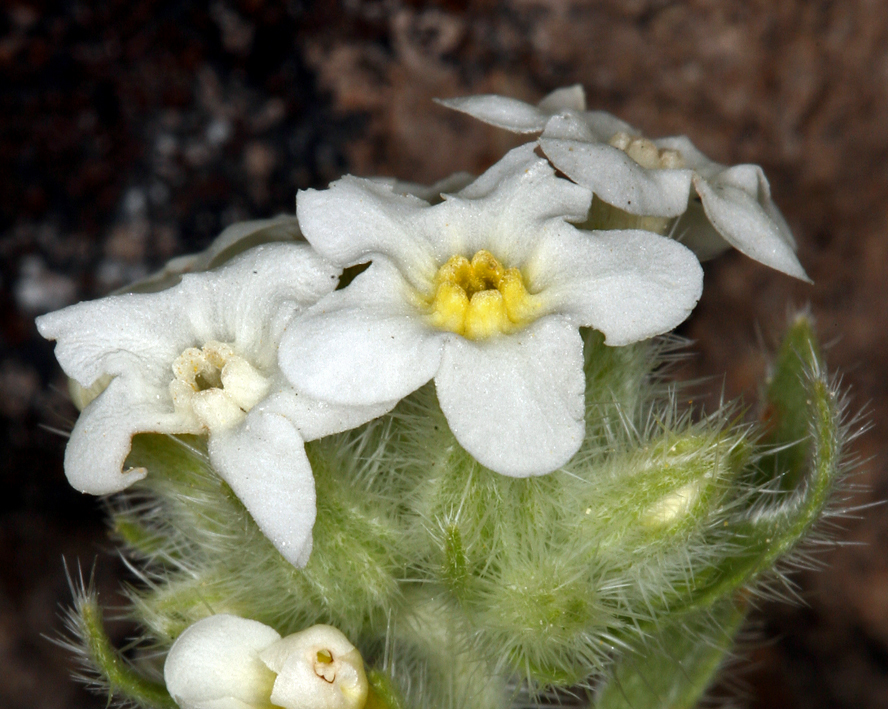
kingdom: Plantae
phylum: Tracheophyta
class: Magnoliopsida
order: Boraginales
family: Boraginaceae
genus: Oreocarya
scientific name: Oreocarya flavoculata
